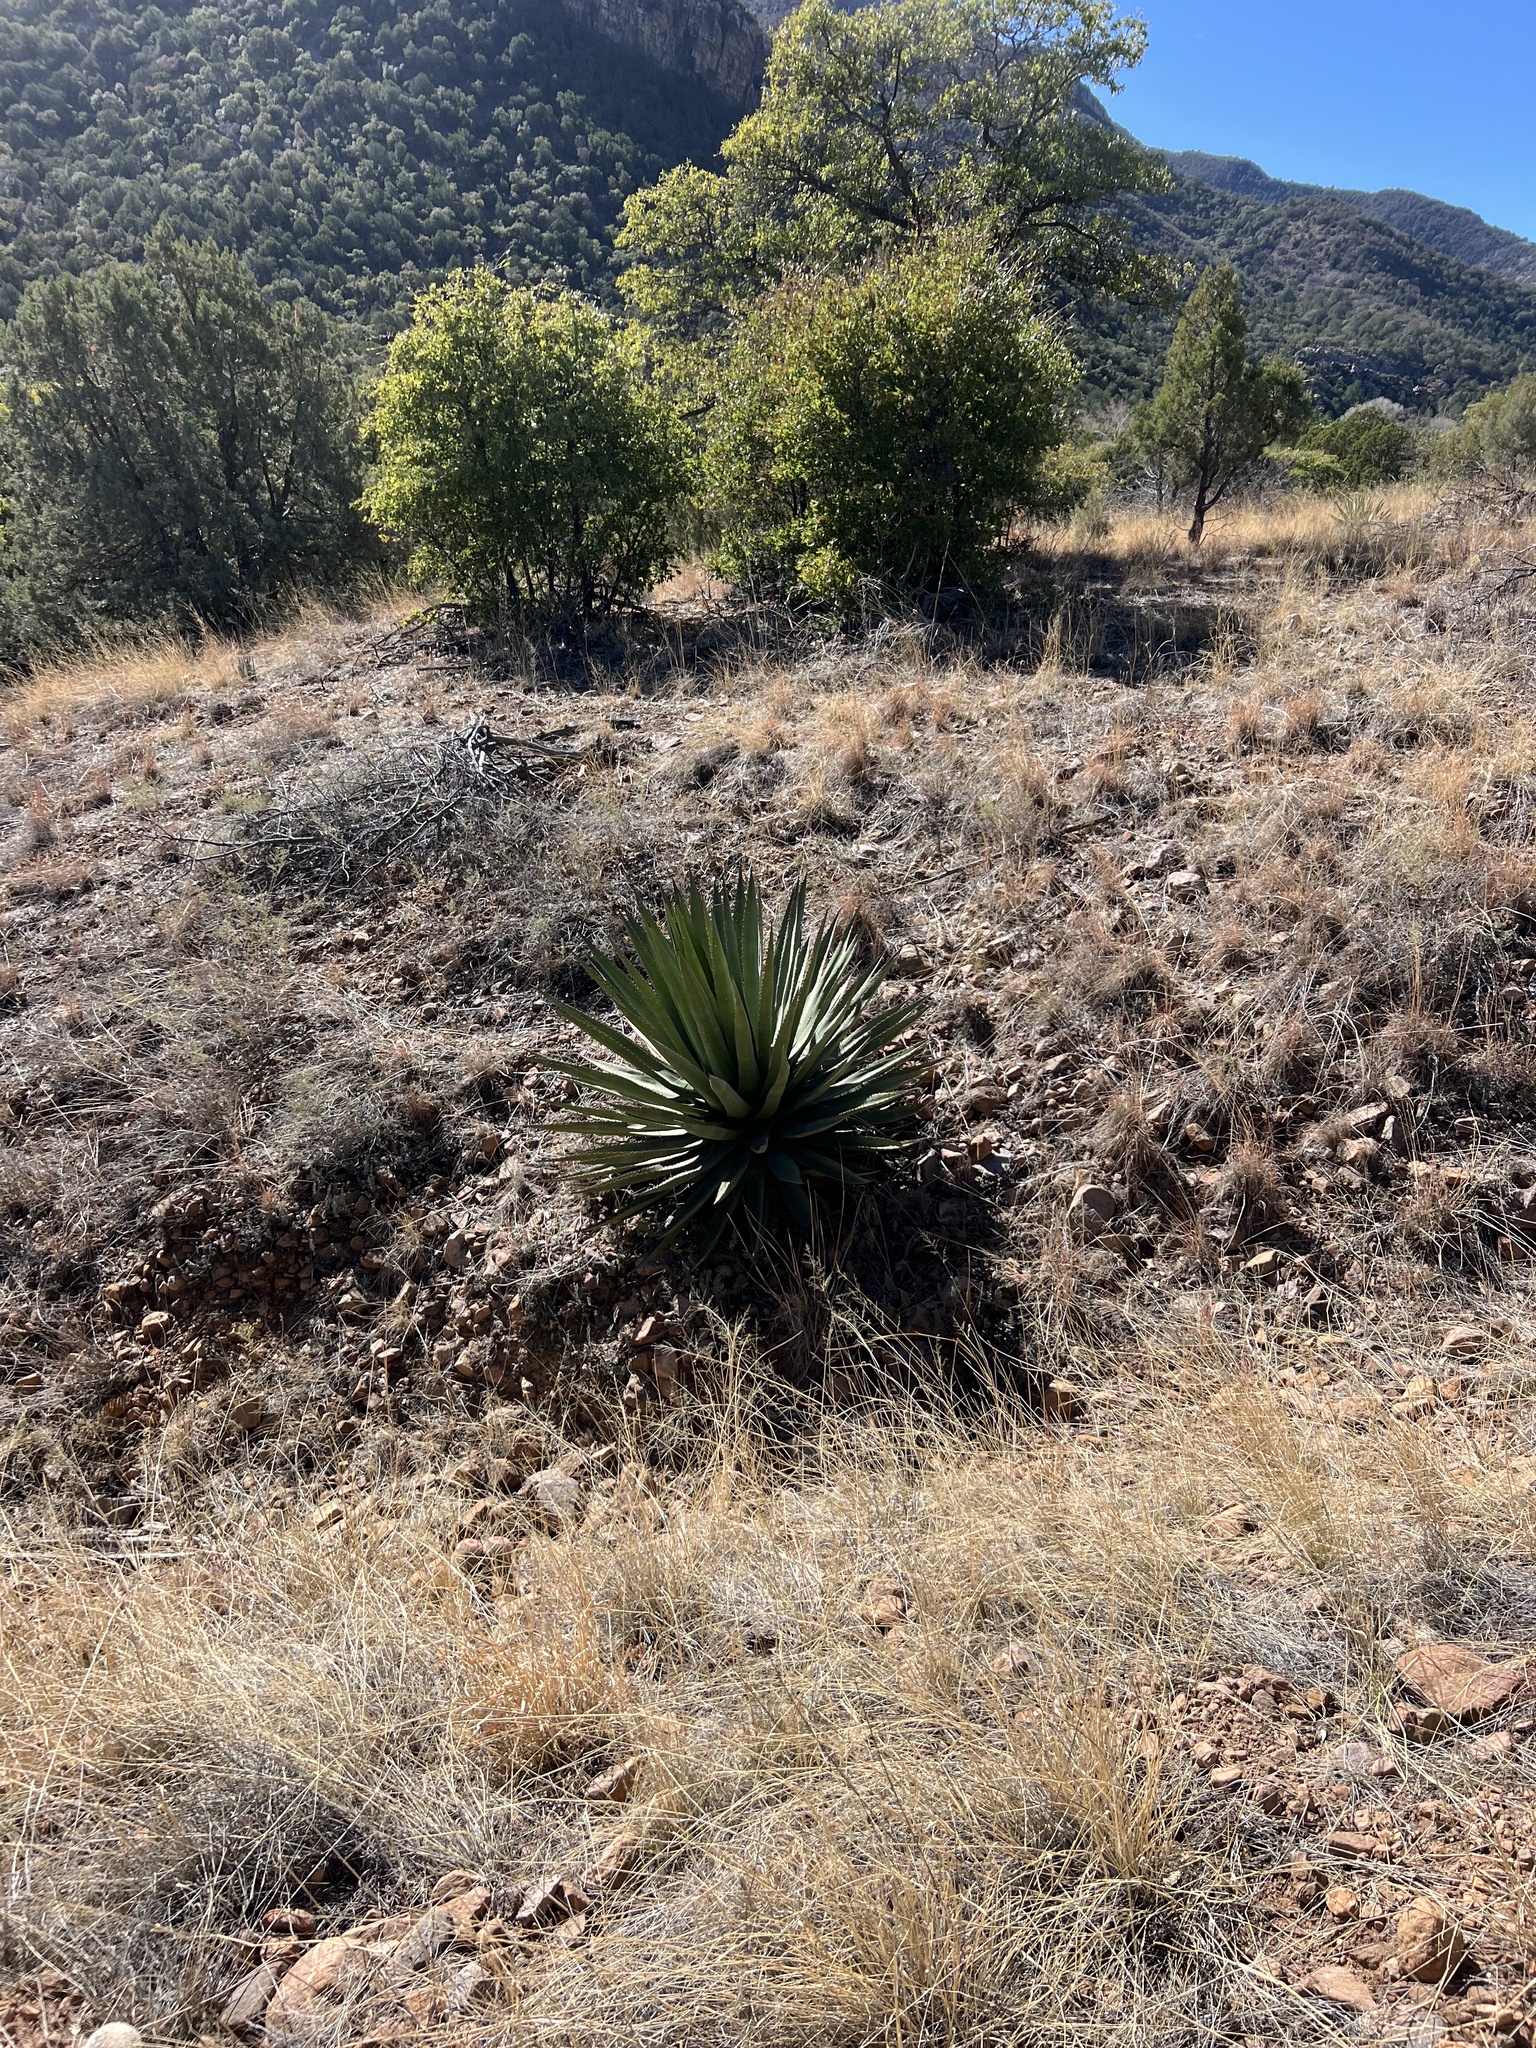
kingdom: Plantae
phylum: Tracheophyta
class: Liliopsida
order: Asparagales
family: Asparagaceae
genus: Agave
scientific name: Agave palmeri
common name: Palmer agave
